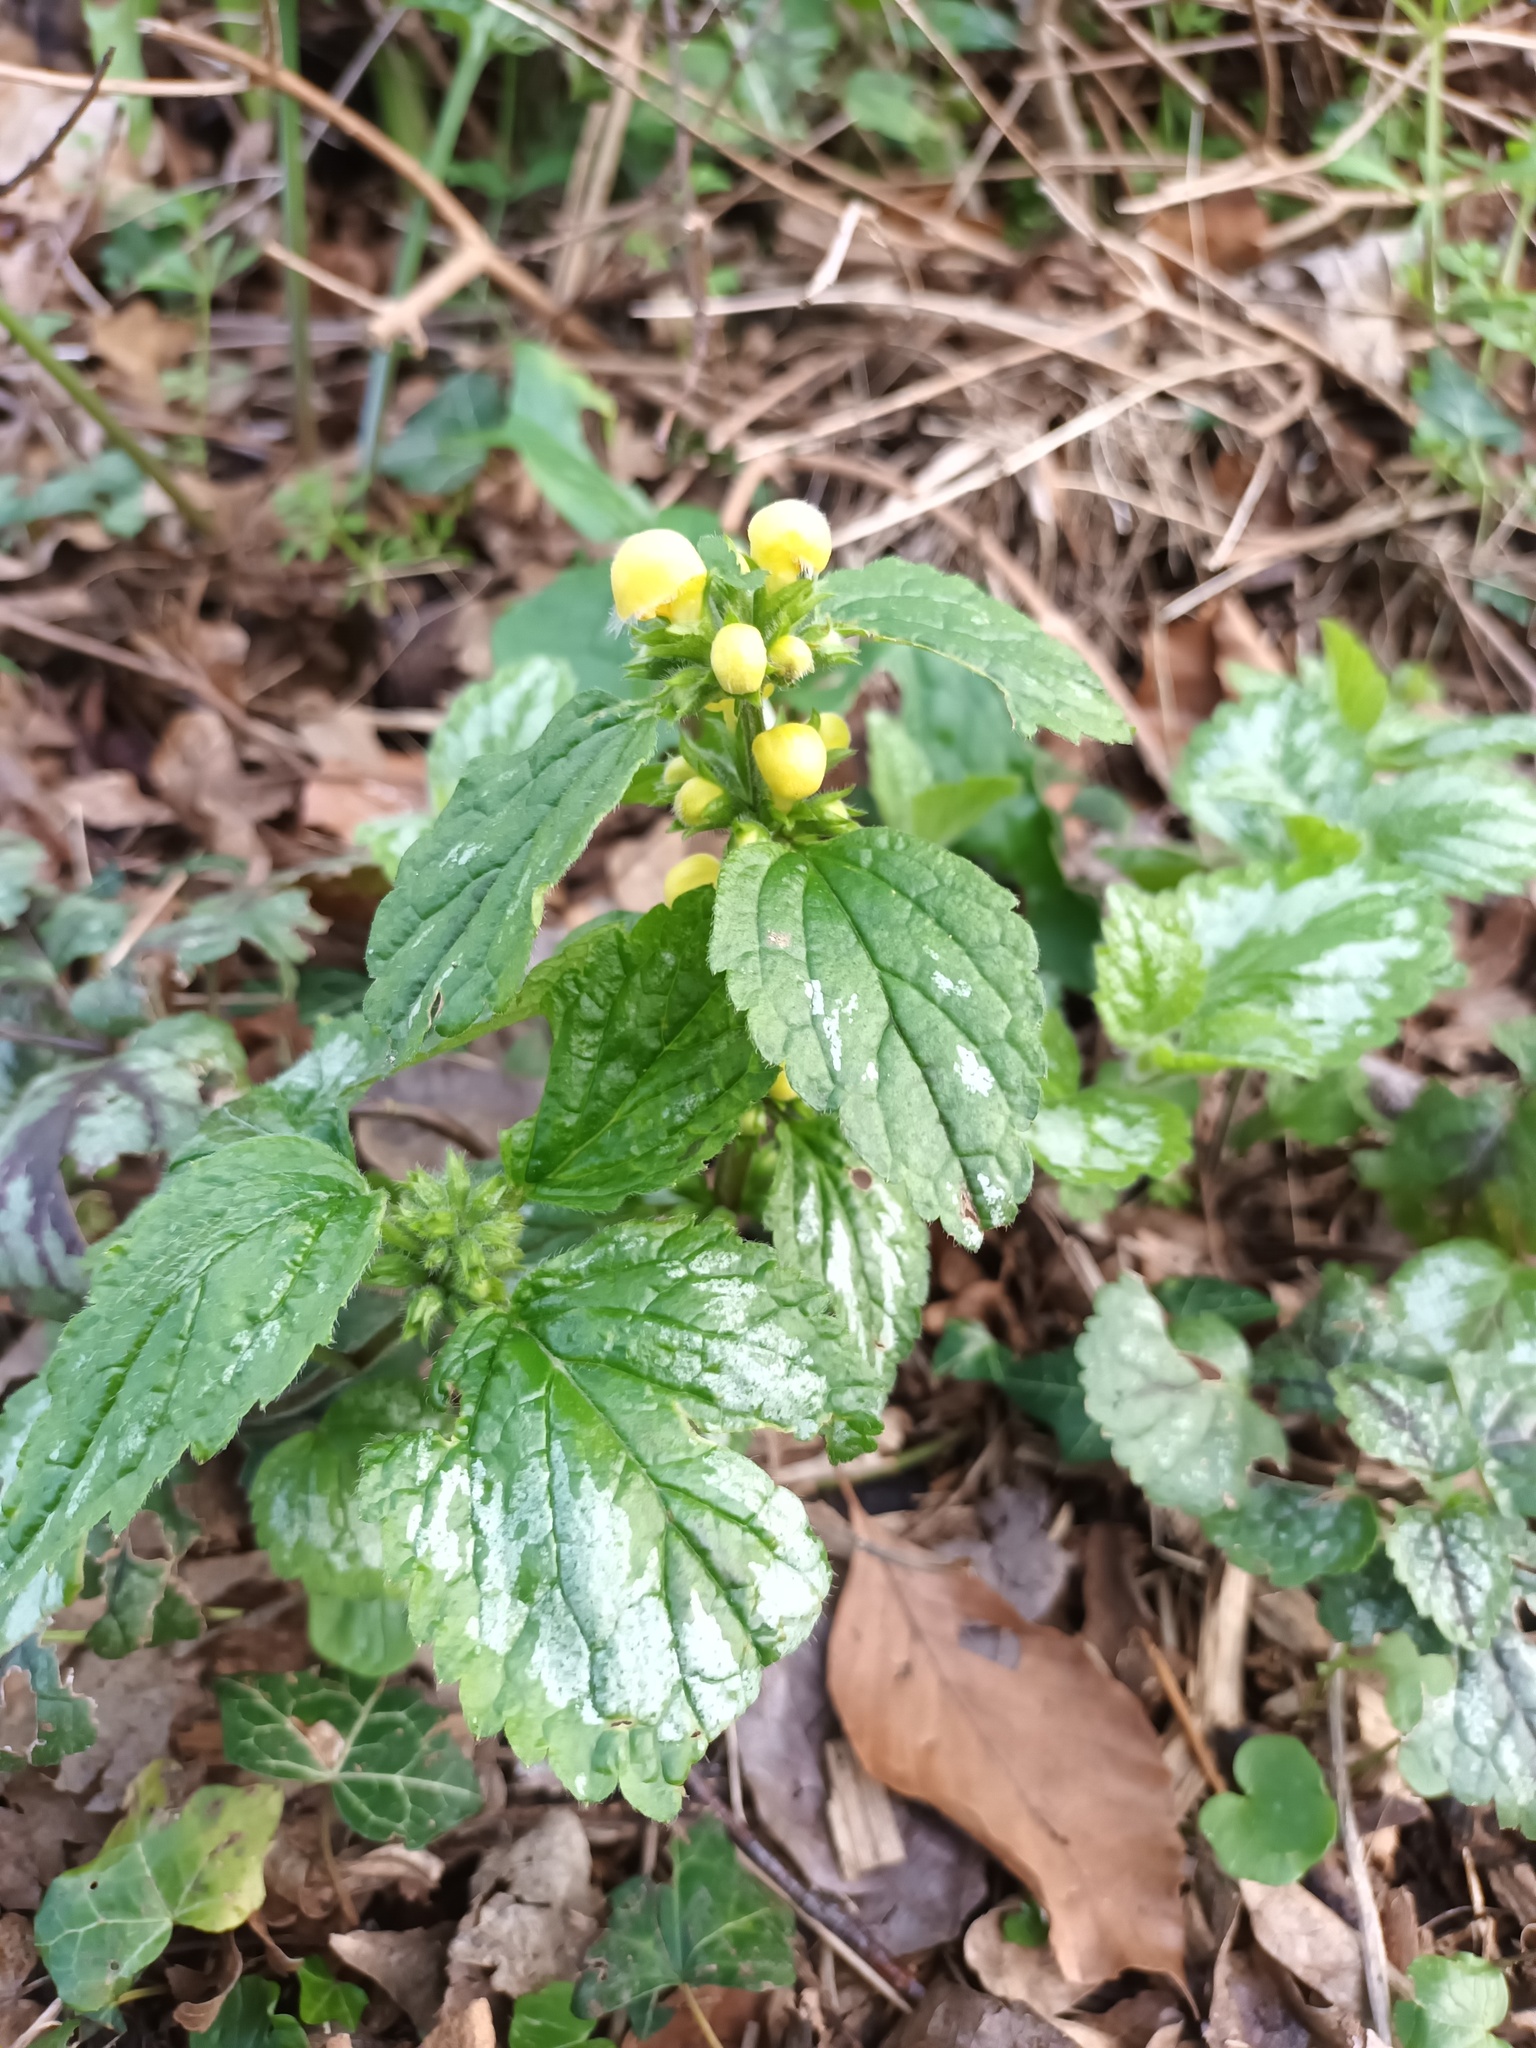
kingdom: Plantae
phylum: Tracheophyta
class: Magnoliopsida
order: Lamiales
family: Lamiaceae
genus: Lamium
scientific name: Lamium galeobdolon
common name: Yellow archangel
